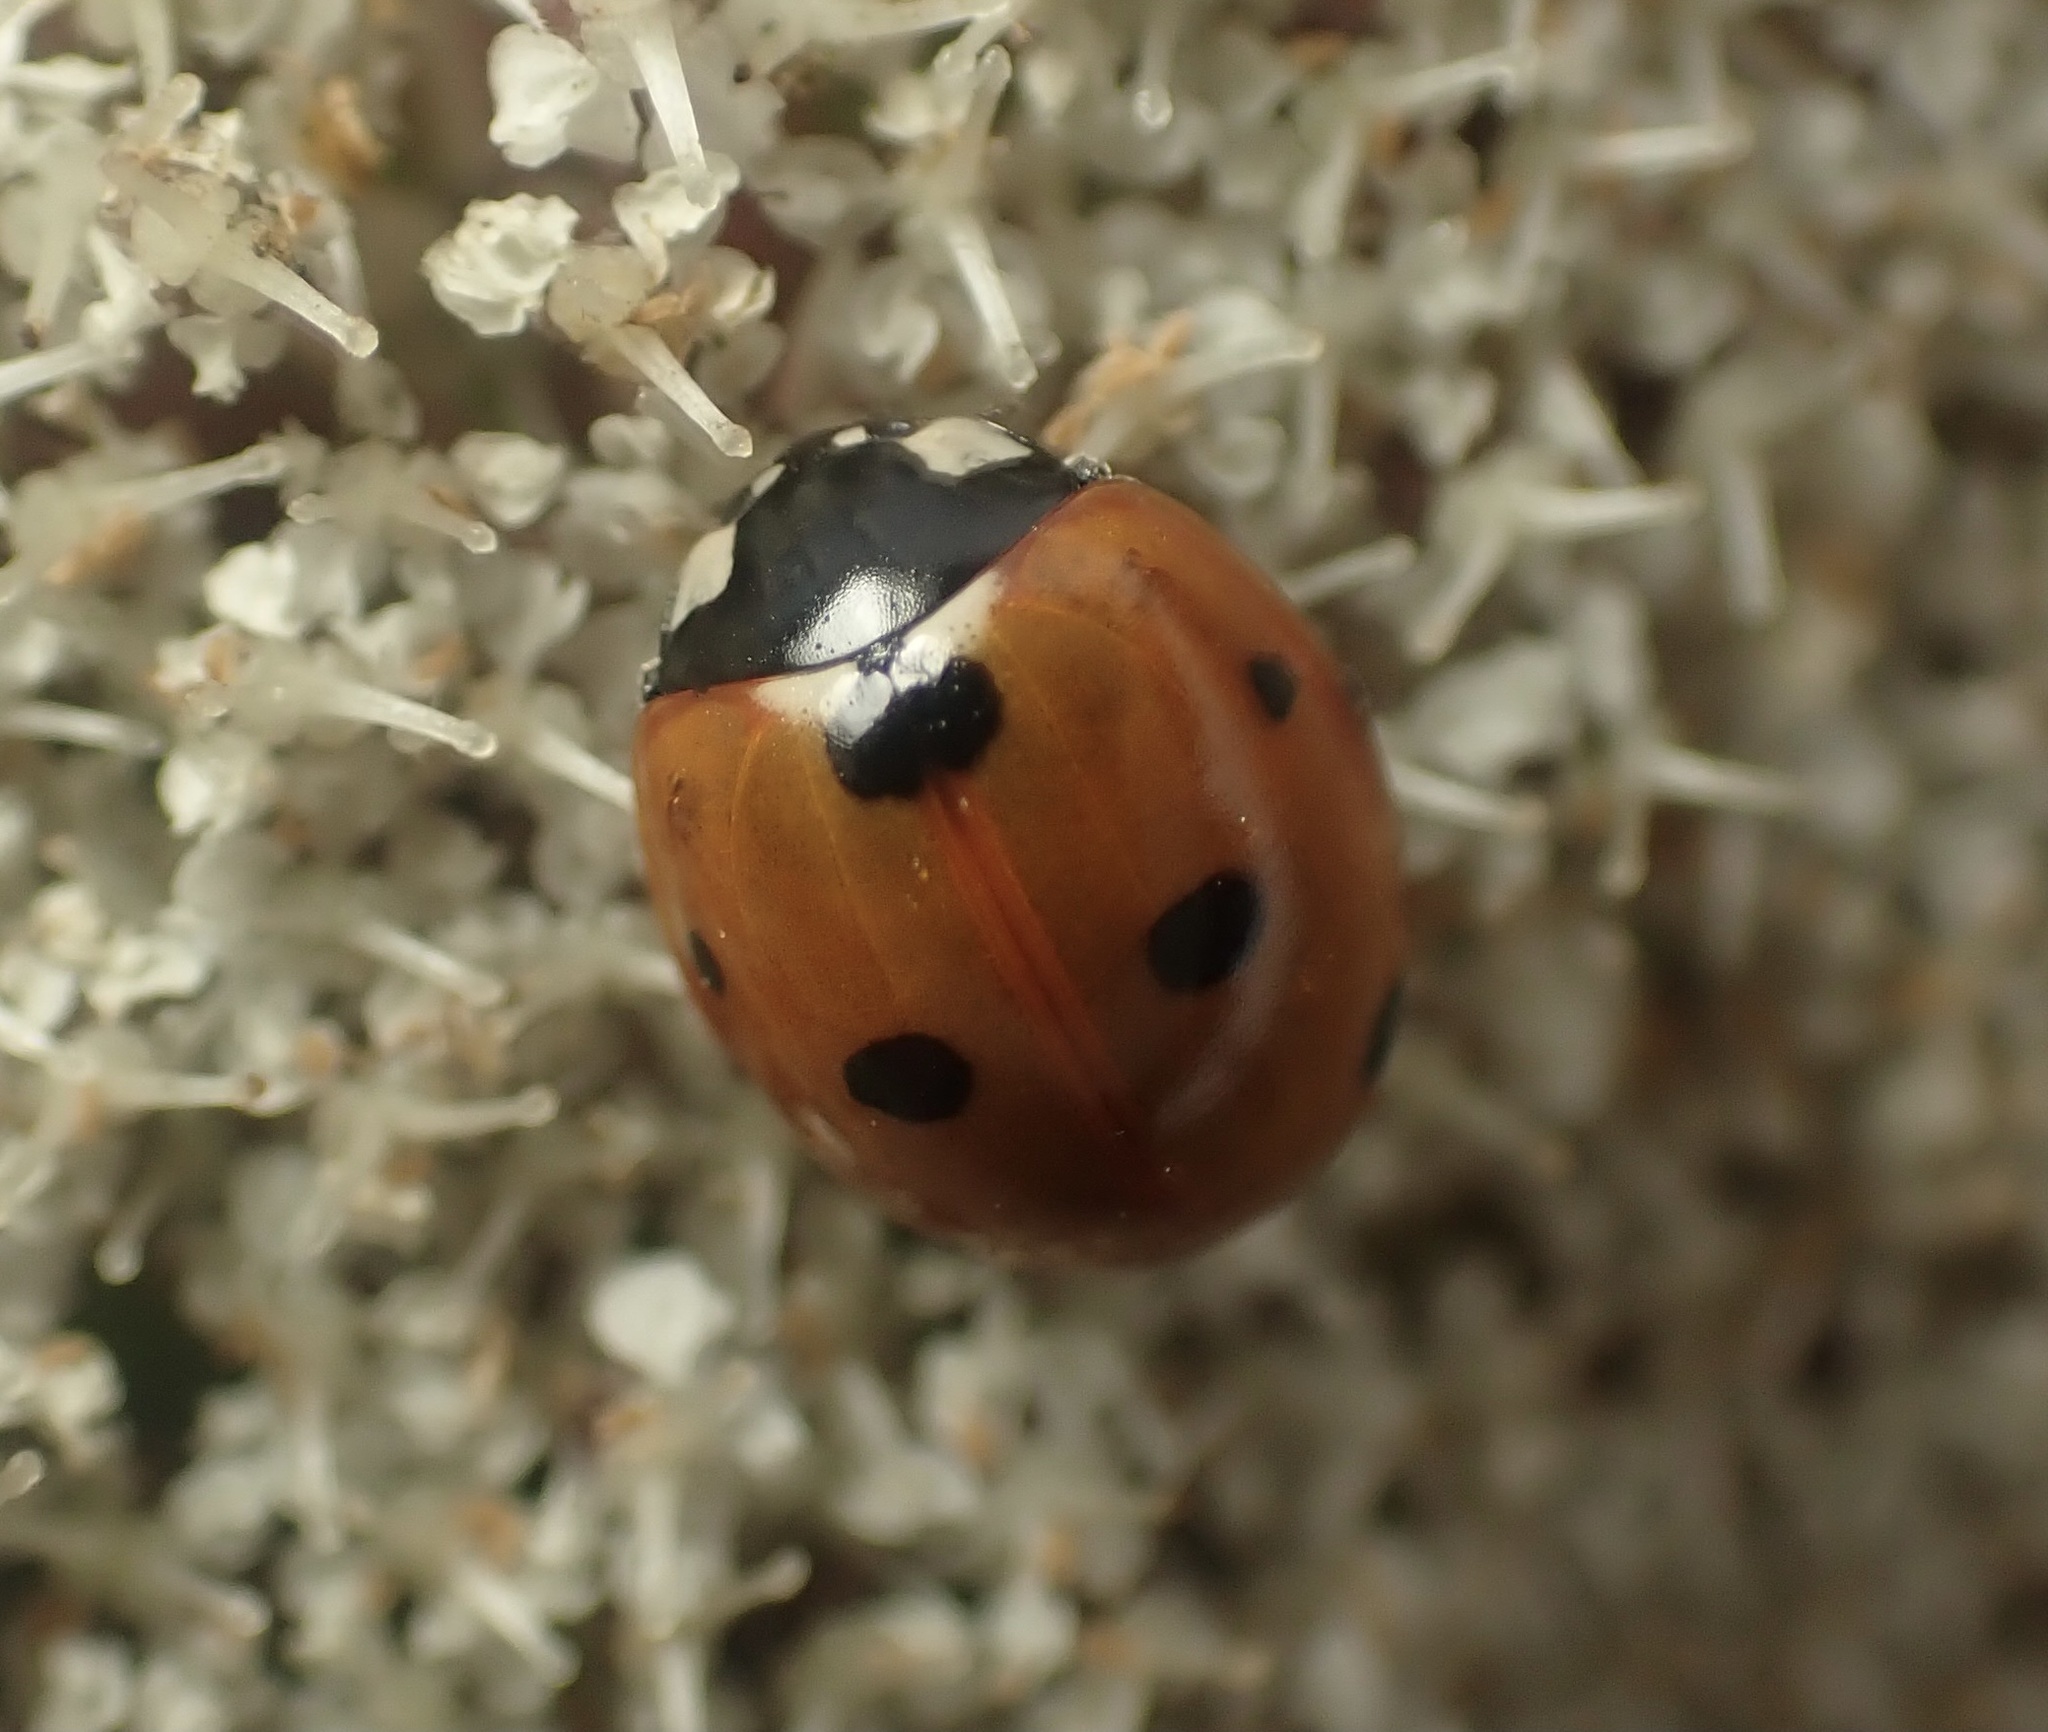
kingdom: Animalia
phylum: Arthropoda
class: Insecta
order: Coleoptera
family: Coccinellidae
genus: Coccinella
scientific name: Coccinella septempunctata
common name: Sevenspotted lady beetle
